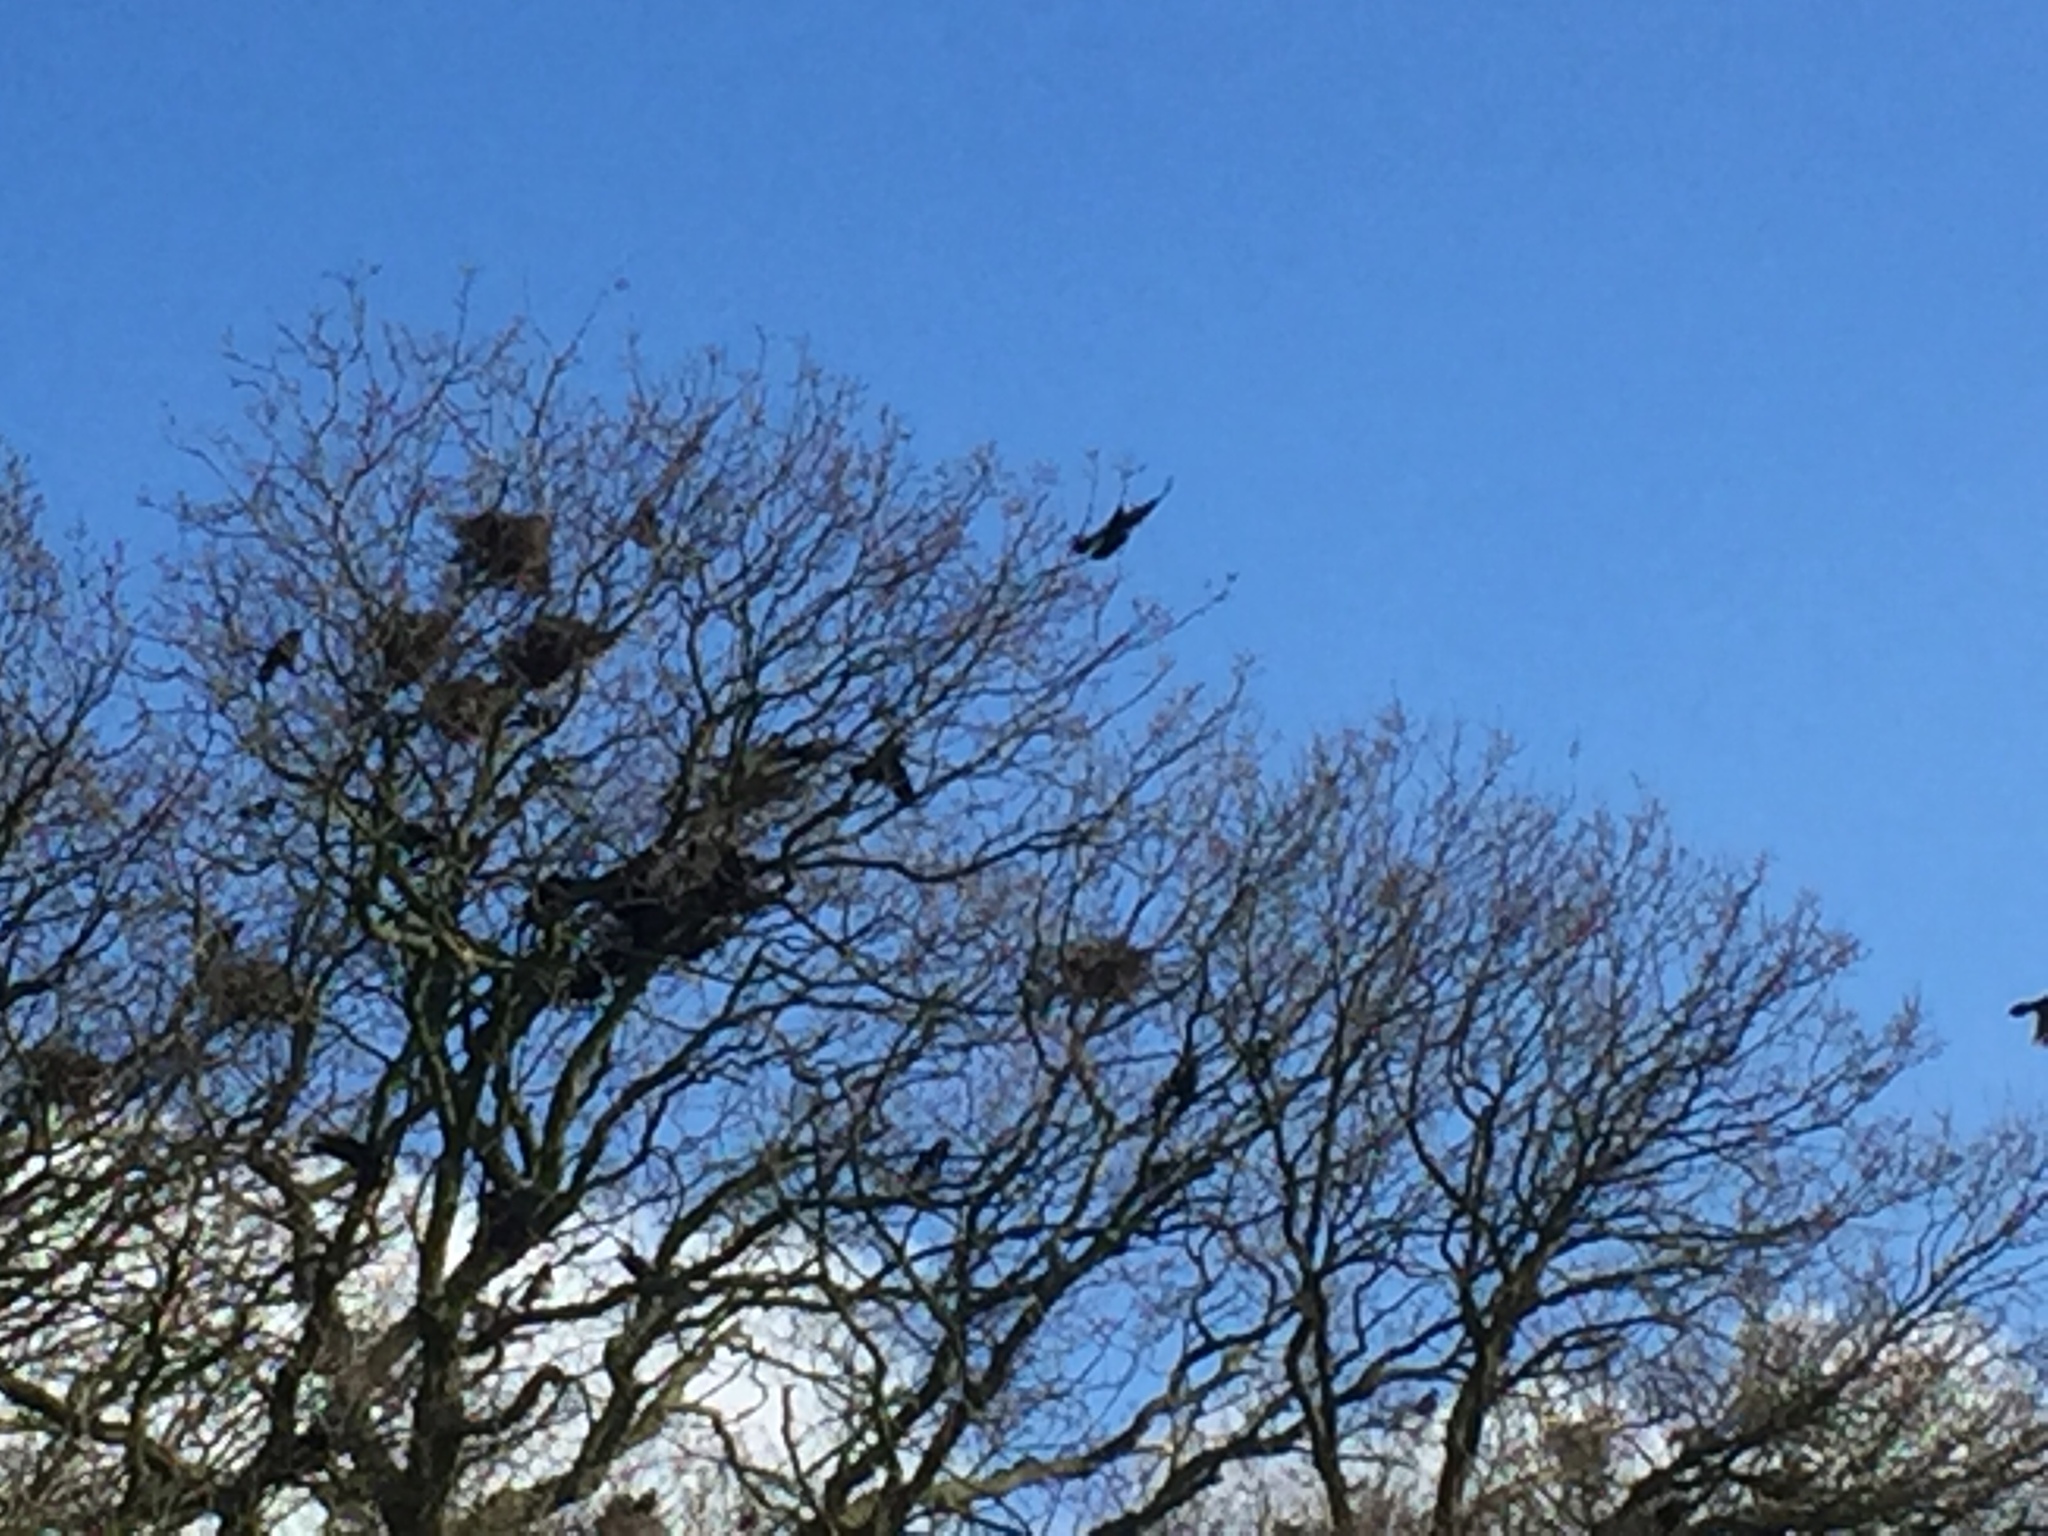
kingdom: Animalia
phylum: Chordata
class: Aves
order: Passeriformes
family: Corvidae
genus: Corvus
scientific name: Corvus frugilegus
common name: Rook
